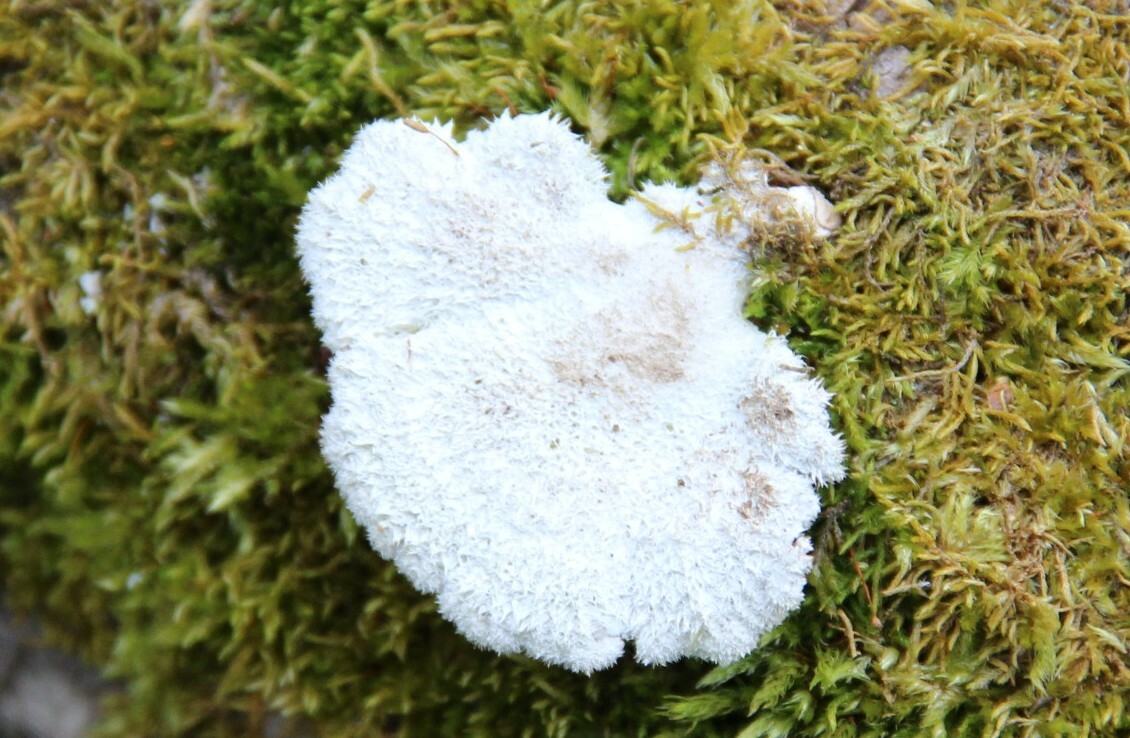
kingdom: Fungi
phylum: Basidiomycota
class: Agaricomycetes
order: Agaricales
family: Schizophyllaceae
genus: Schizophyllum
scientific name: Schizophyllum commune
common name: Common porecrust
